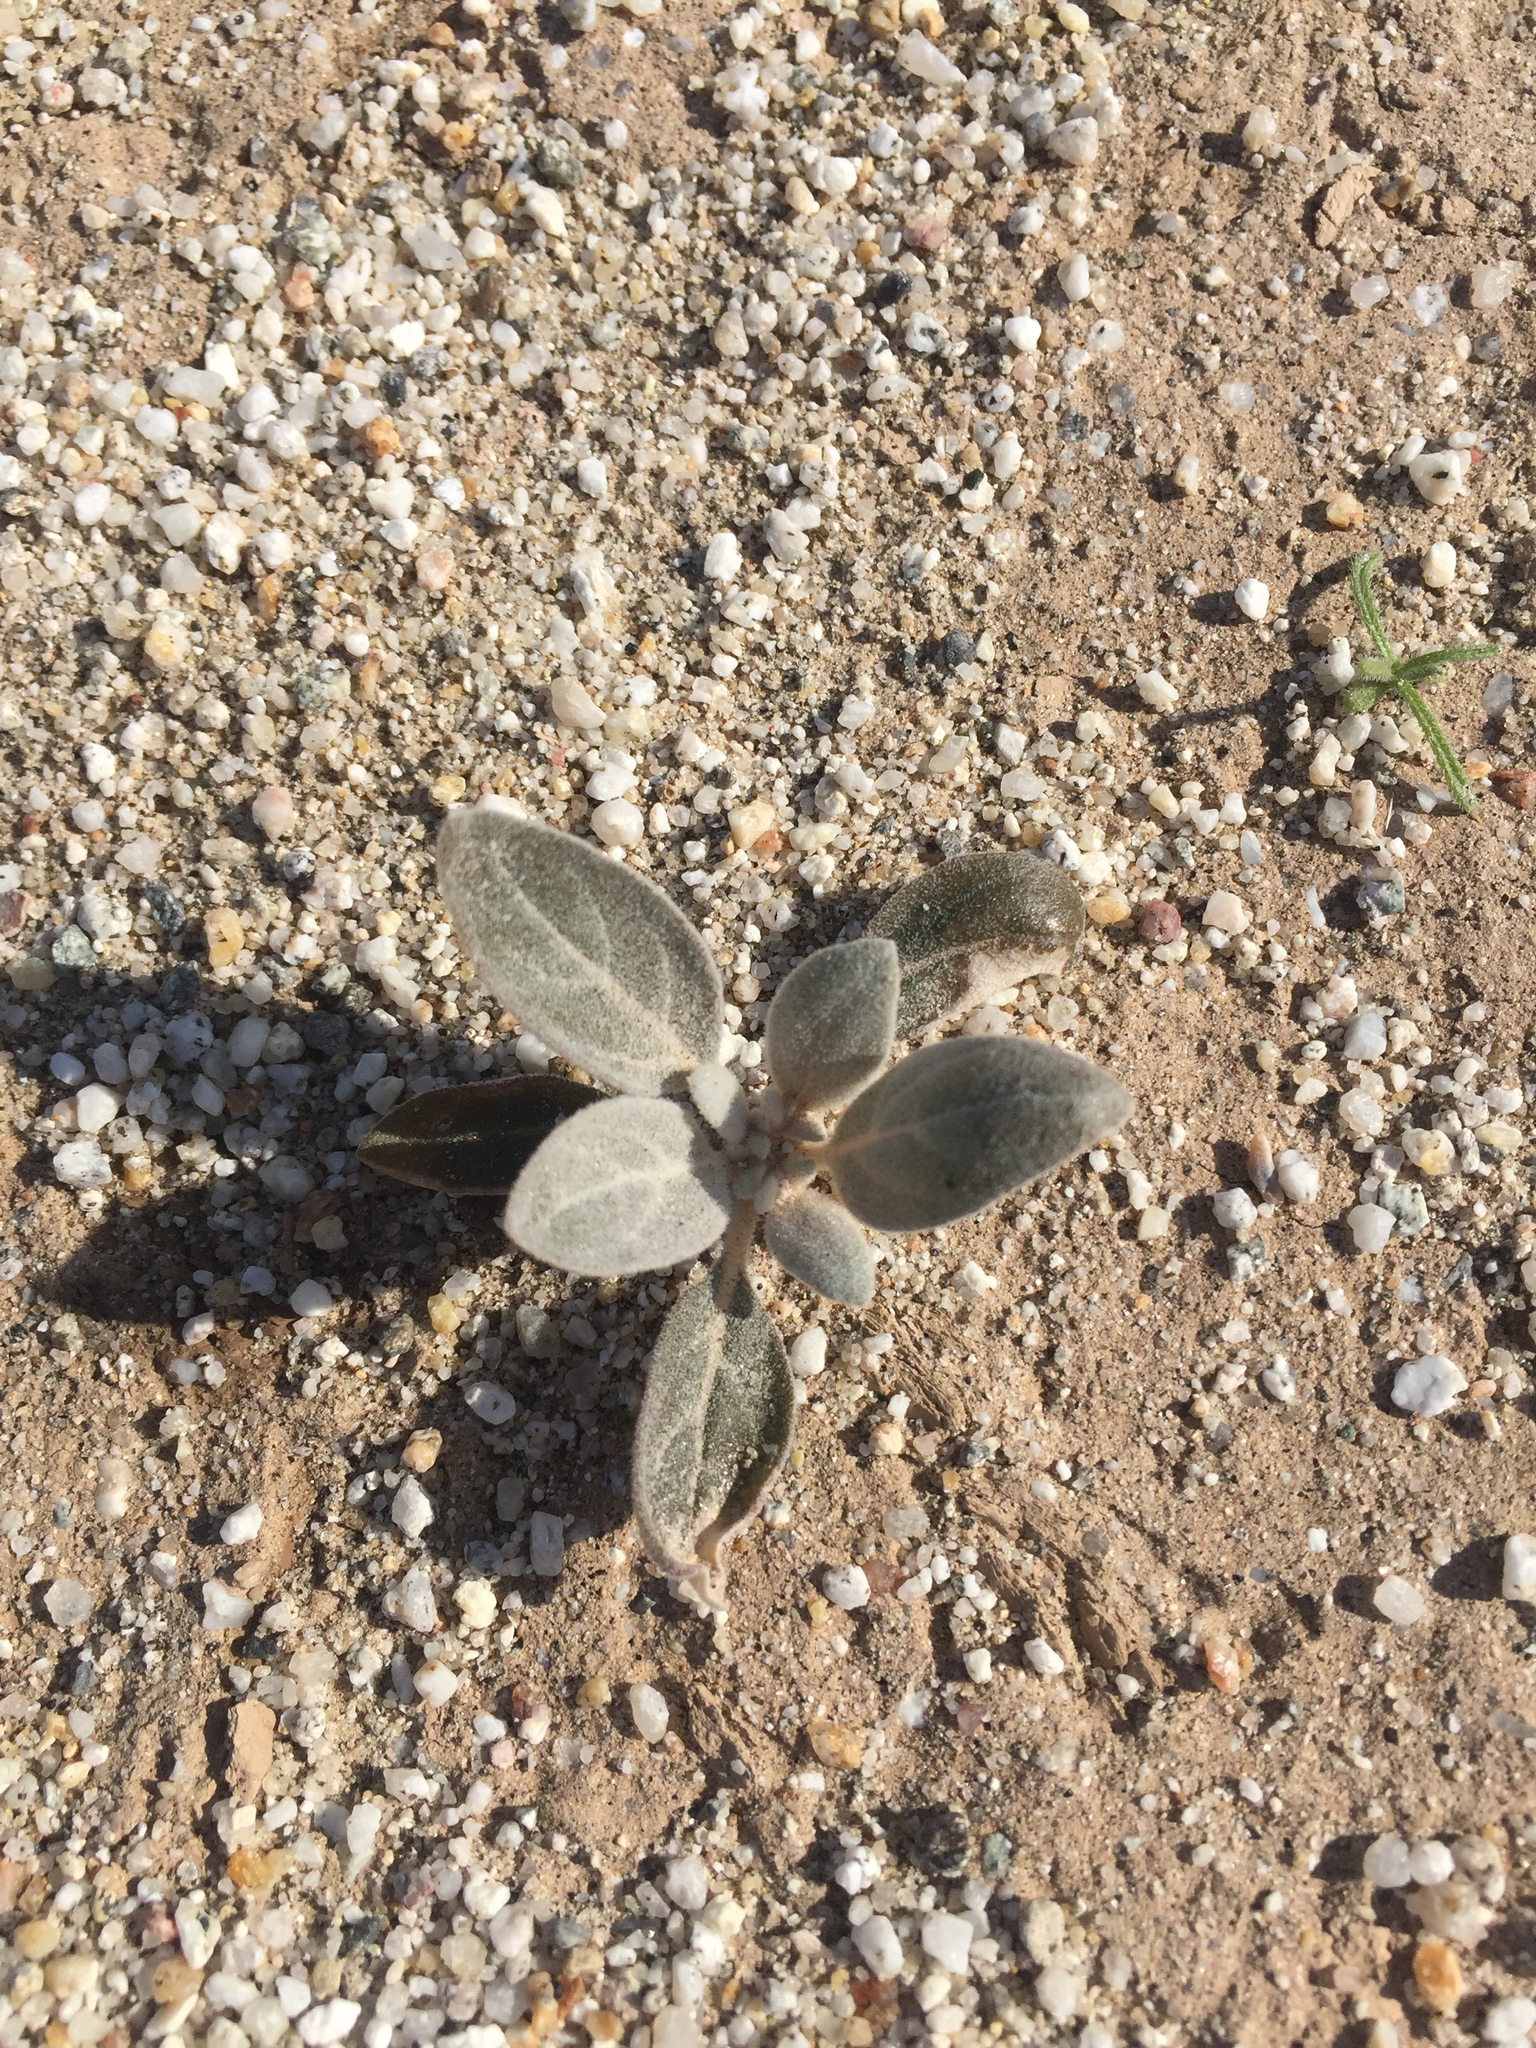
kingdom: Plantae
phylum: Tracheophyta
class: Magnoliopsida
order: Caryophyllales
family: Amaranthaceae
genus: Tidestromia
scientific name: Tidestromia suffruticosa
